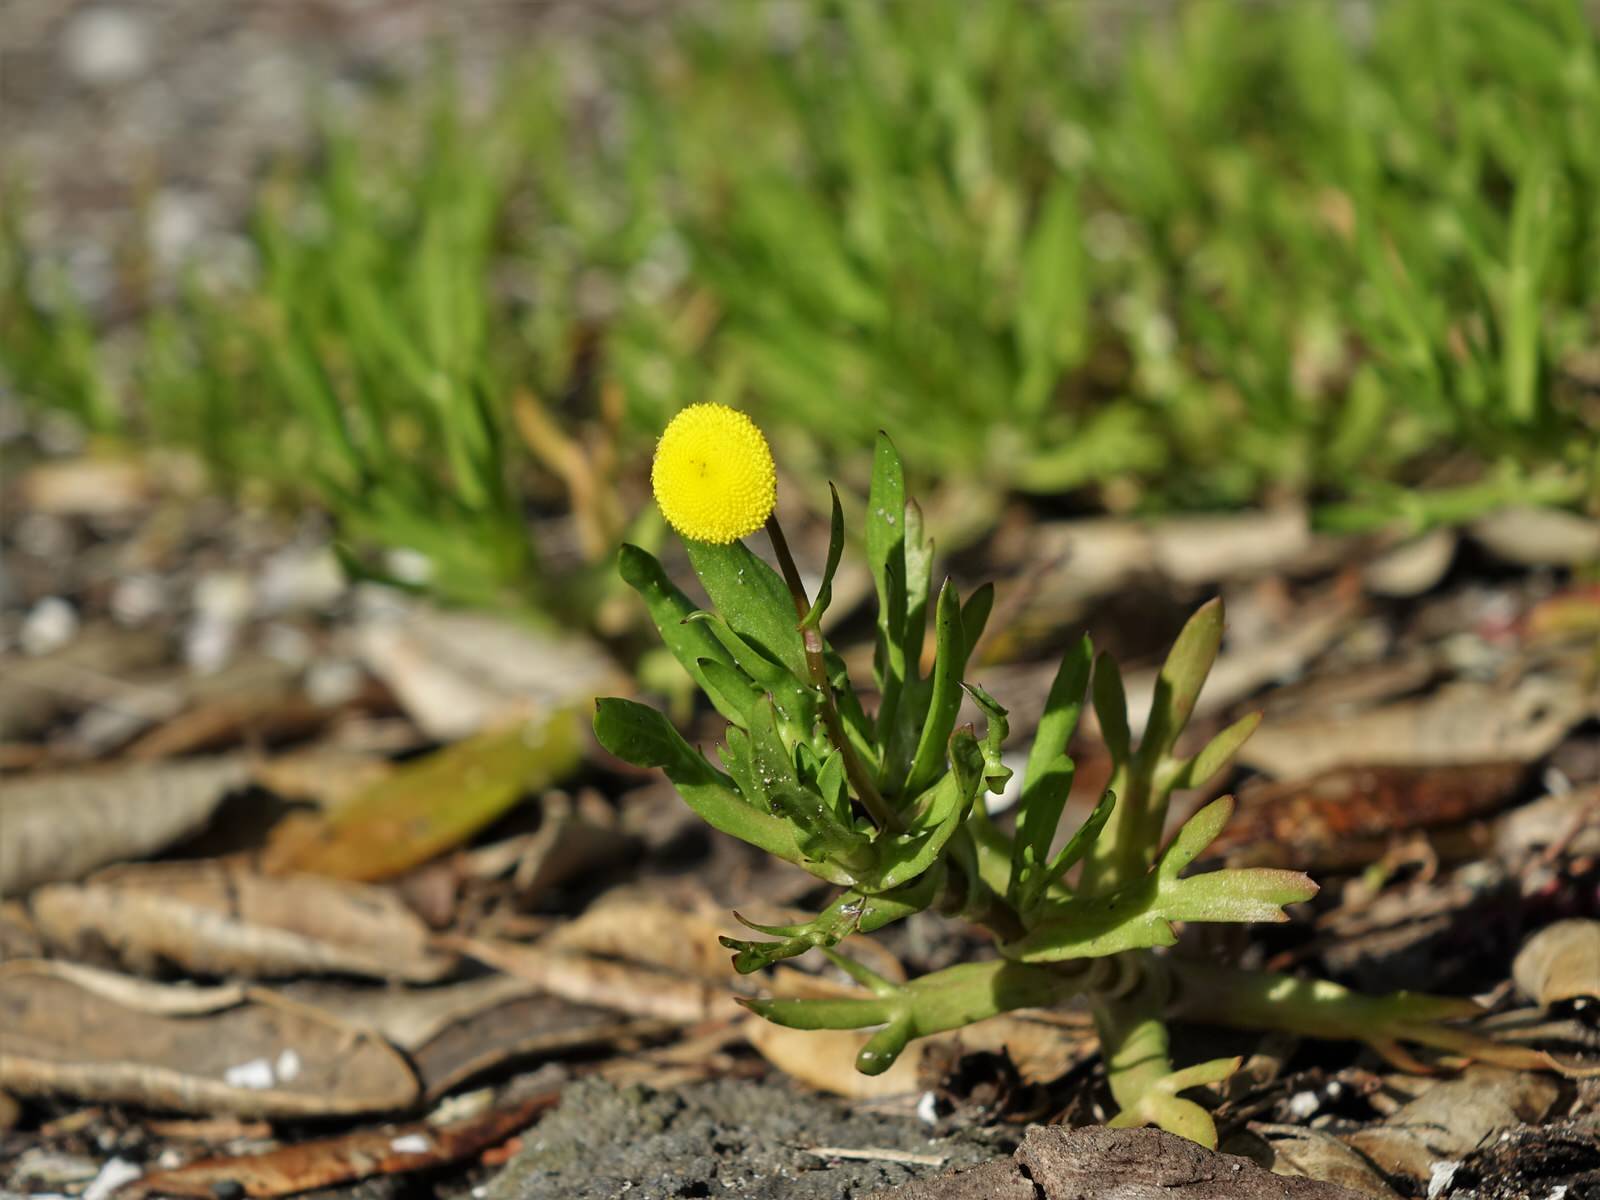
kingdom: Plantae
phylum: Tracheophyta
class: Magnoliopsida
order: Asterales
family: Asteraceae
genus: Cotula
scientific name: Cotula coronopifolia
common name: Buttonweed
